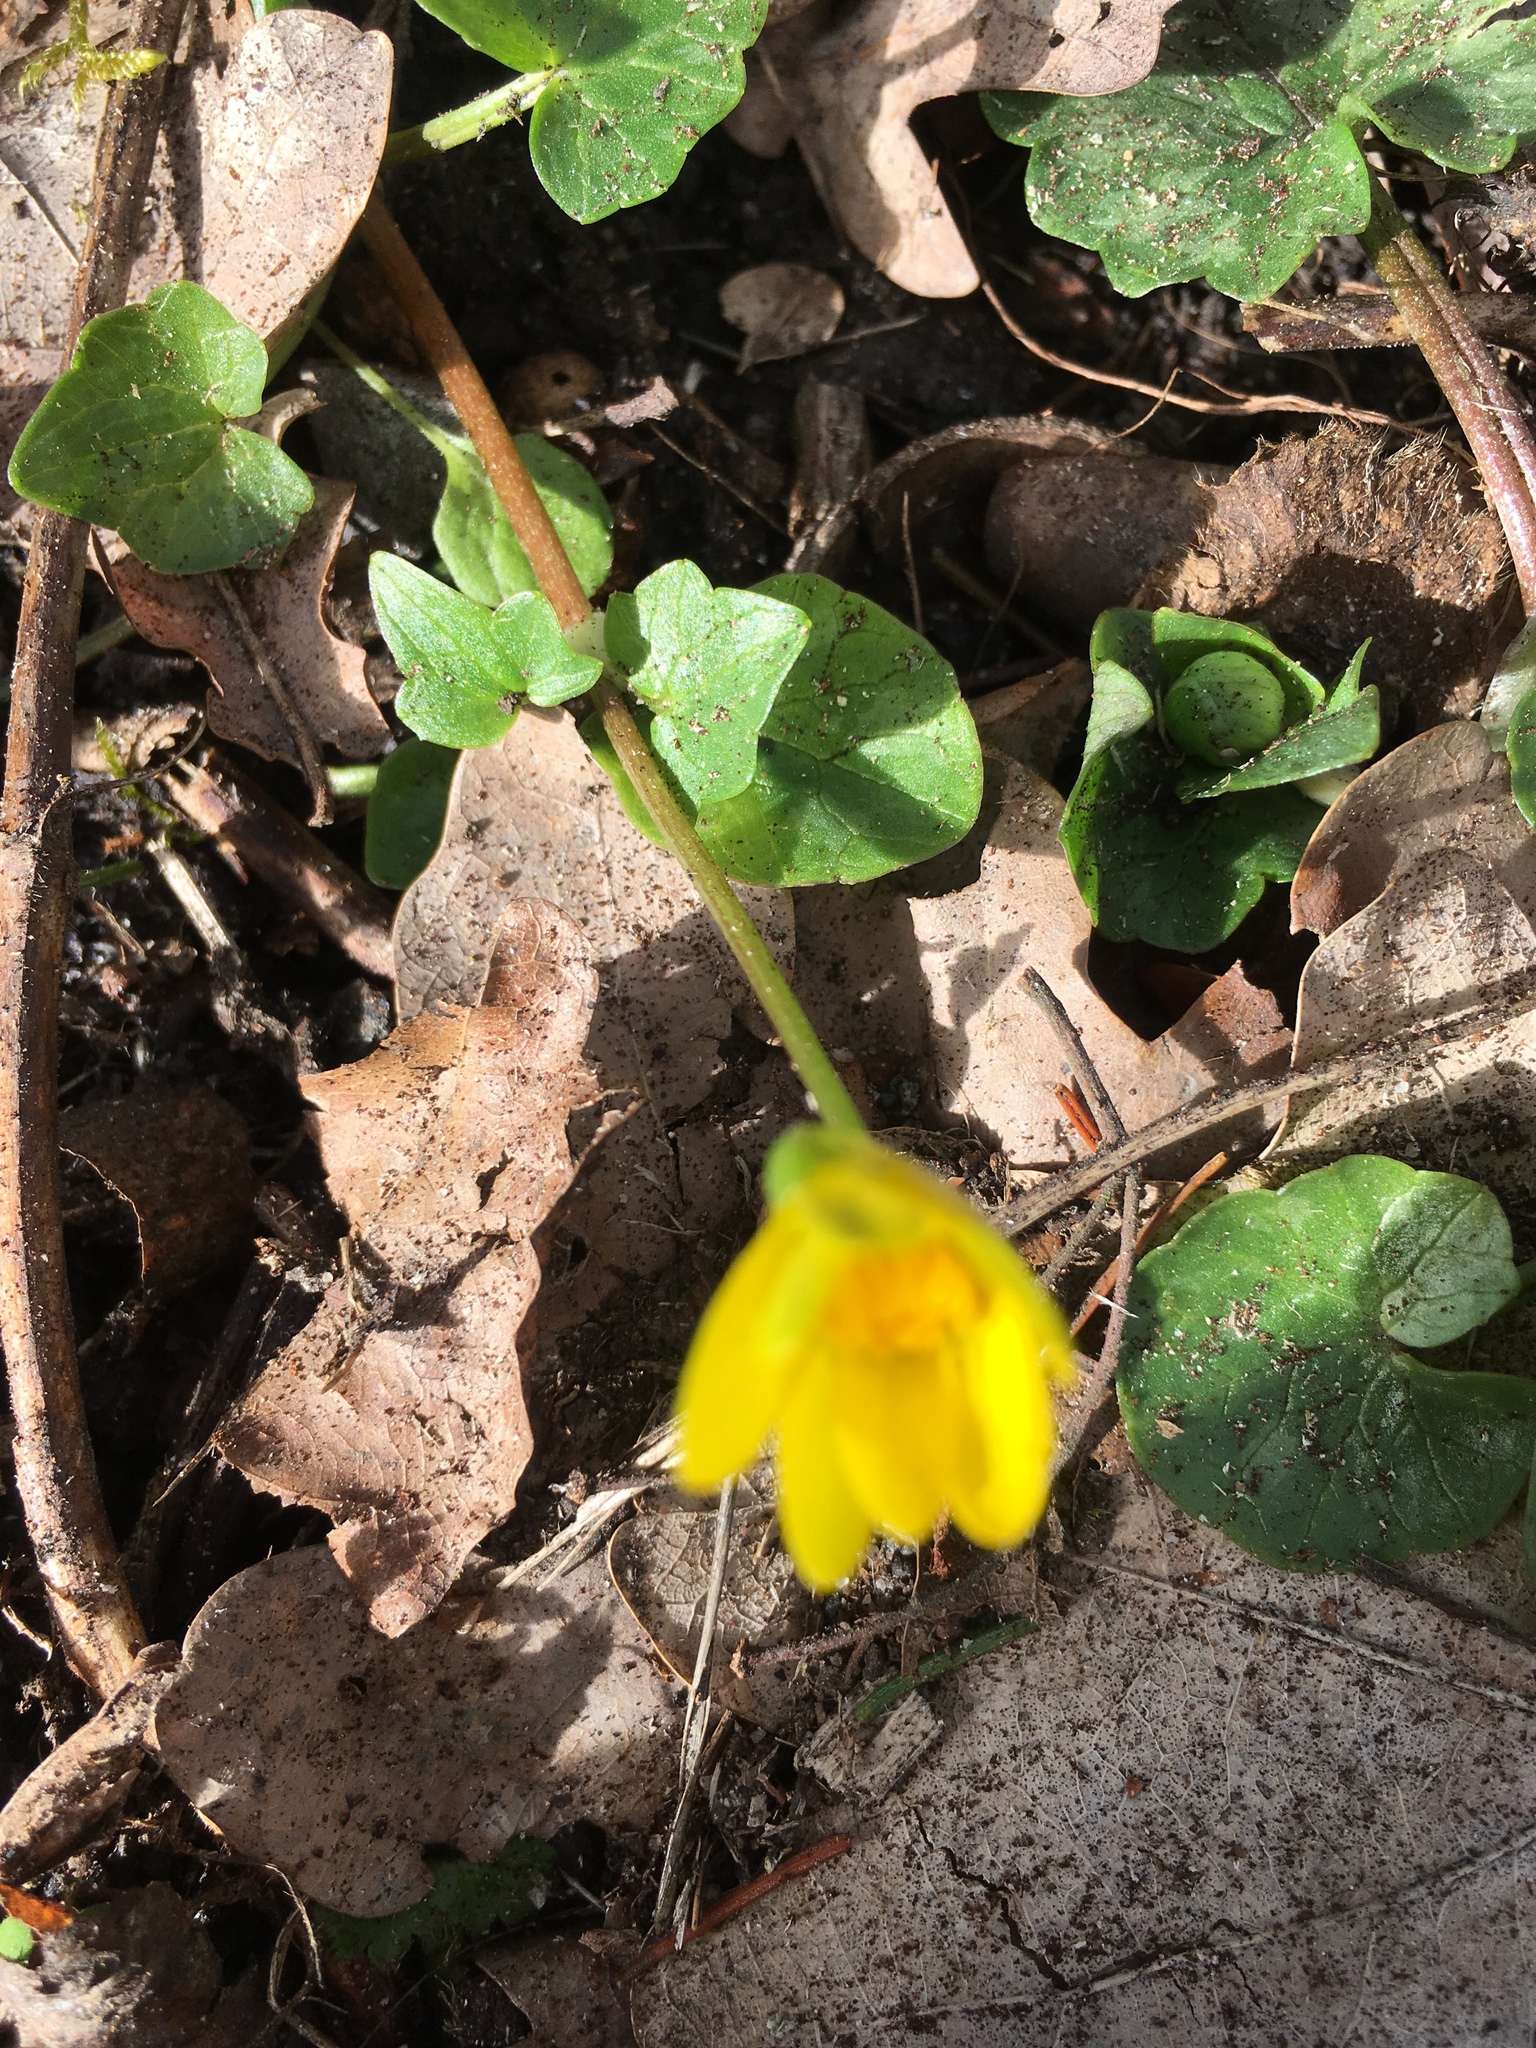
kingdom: Plantae
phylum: Tracheophyta
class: Magnoliopsida
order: Ranunculales
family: Ranunculaceae
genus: Ficaria
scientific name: Ficaria verna
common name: Lesser celandine
